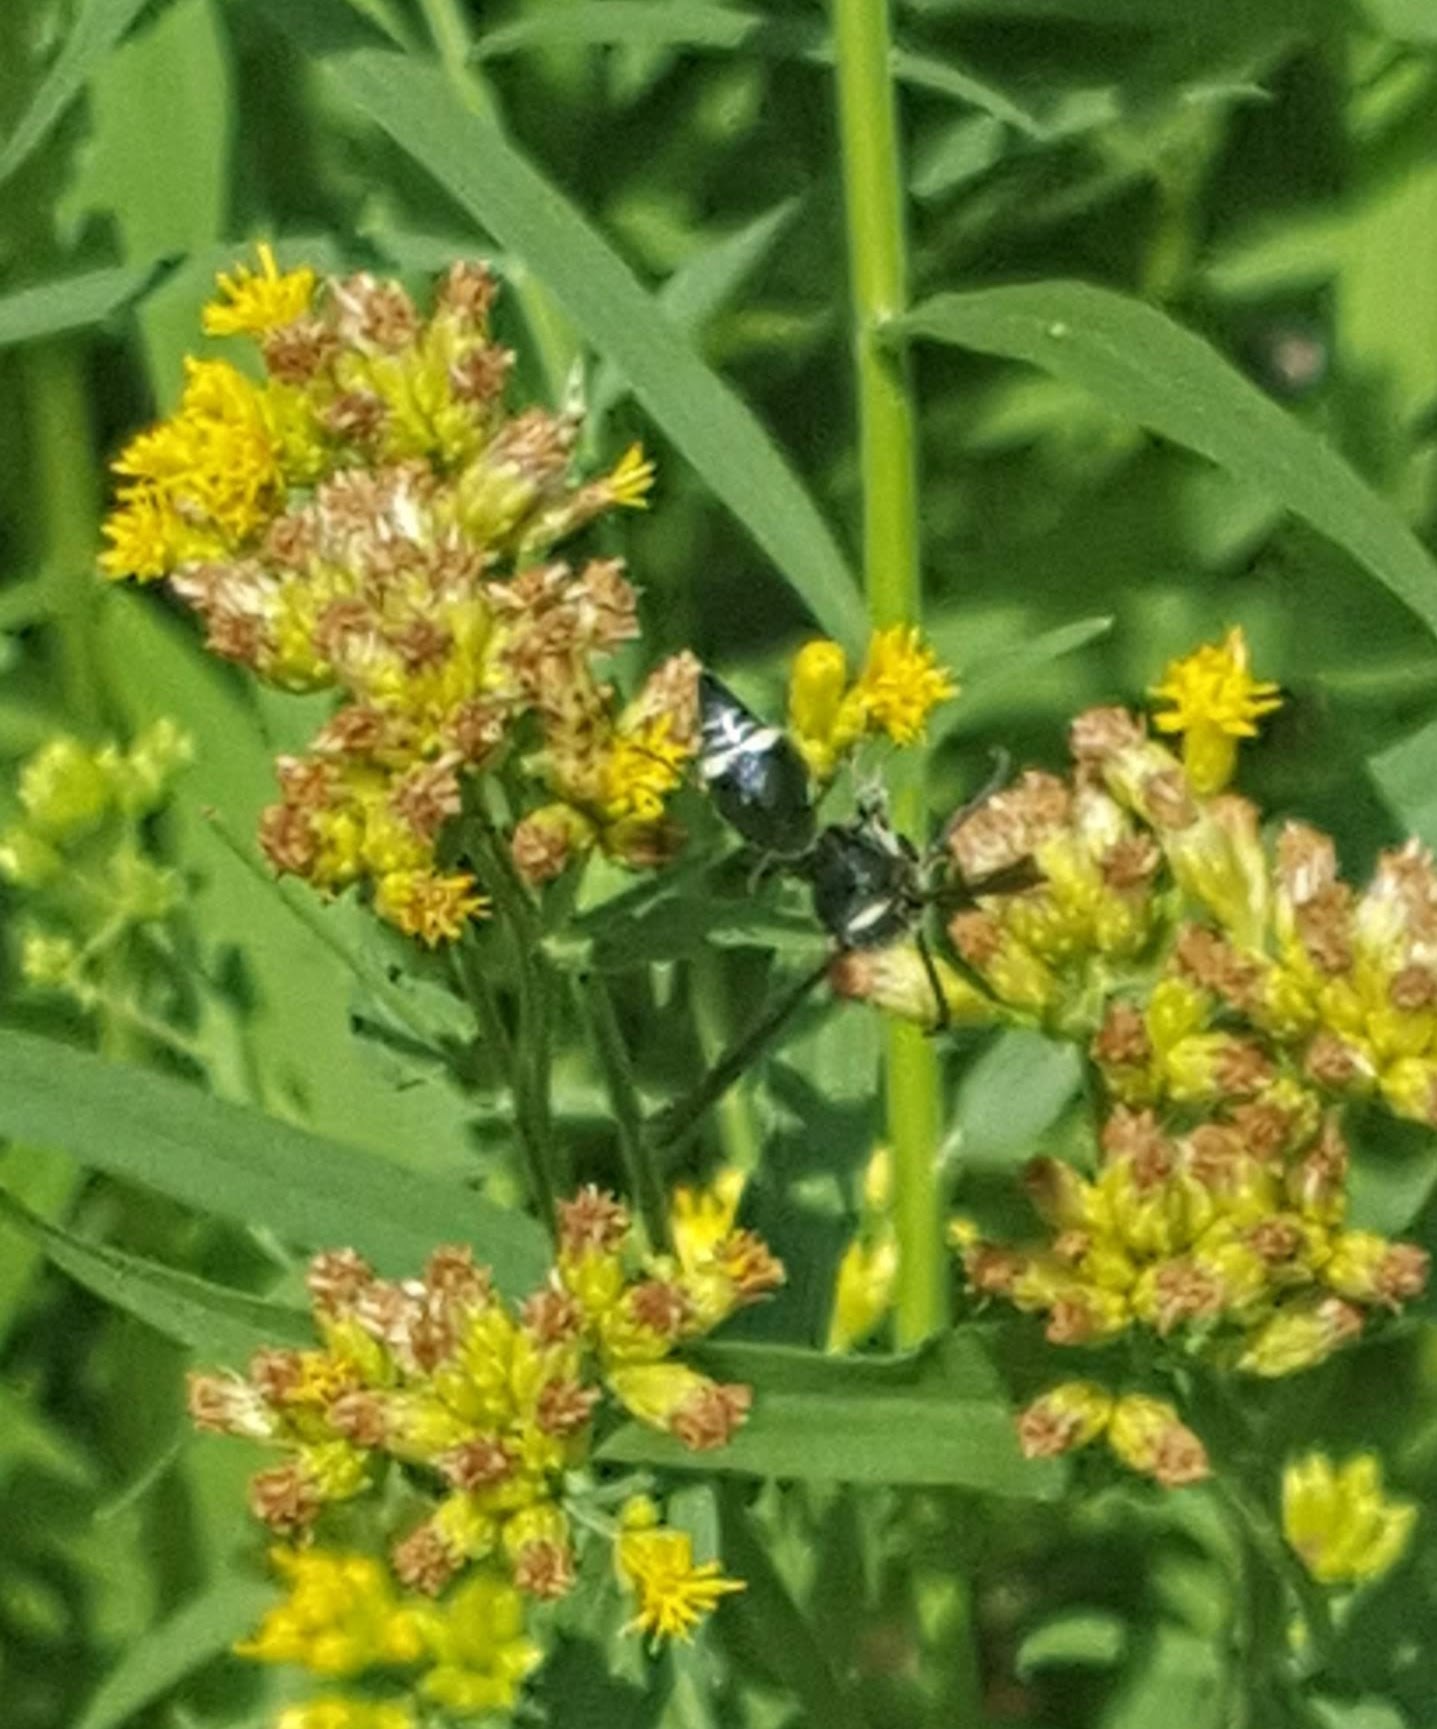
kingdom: Animalia
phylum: Arthropoda
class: Insecta
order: Hymenoptera
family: Vespidae
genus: Eumenes
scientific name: Eumenes fraternus
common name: Fraternal potter wasp
